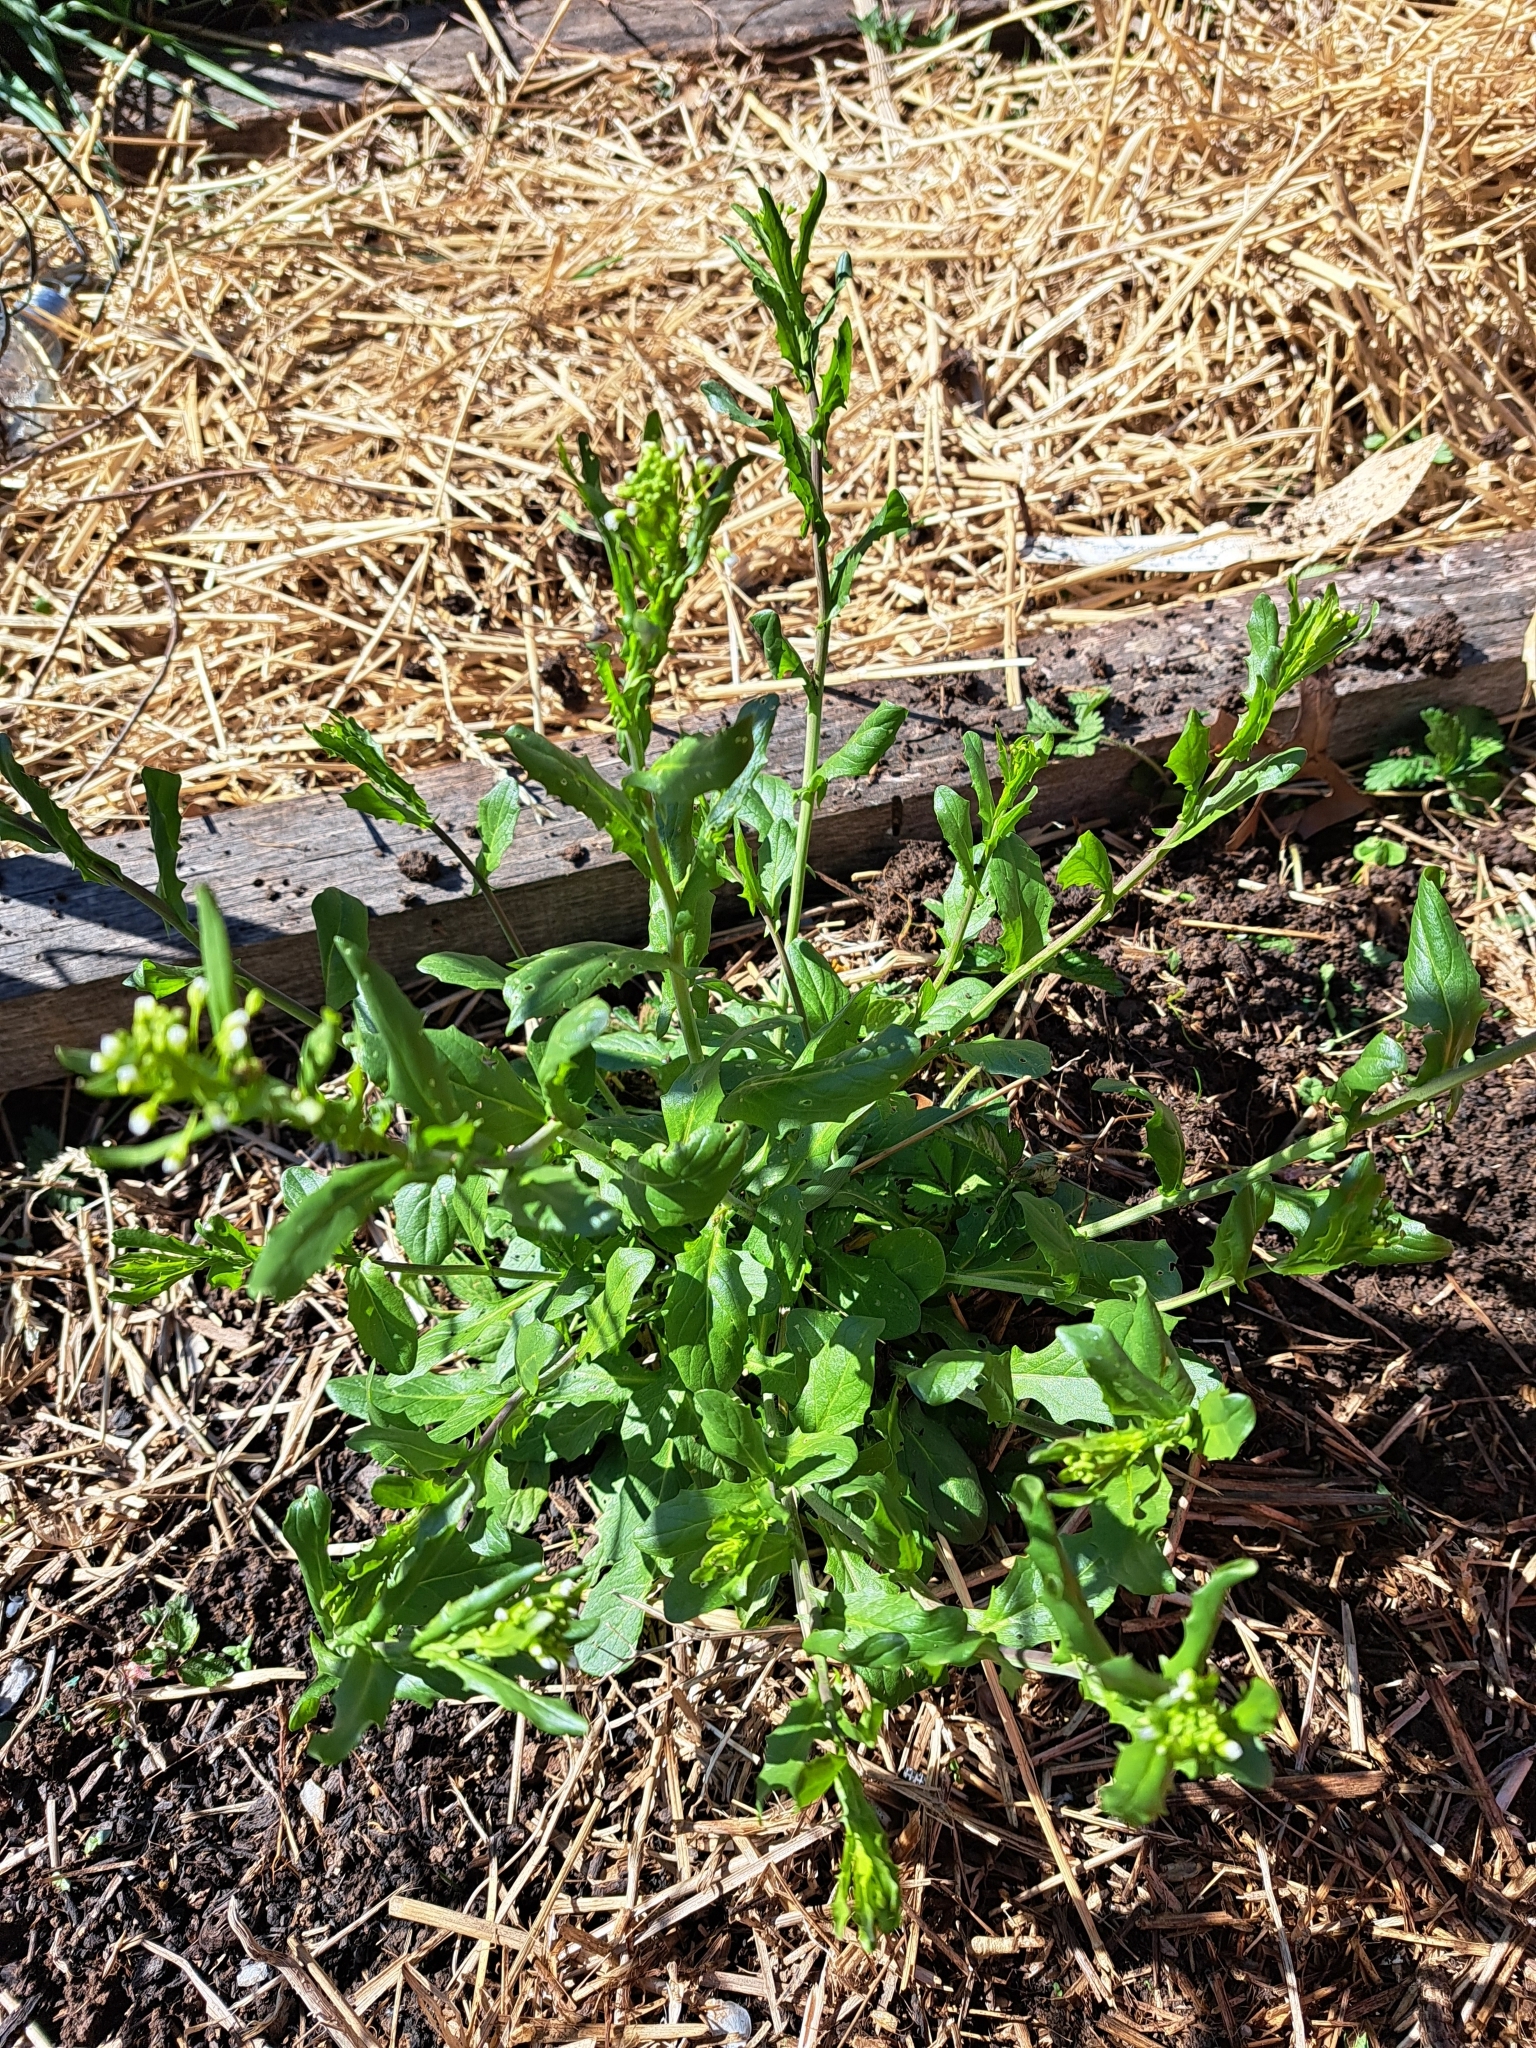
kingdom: Plantae
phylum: Tracheophyta
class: Magnoliopsida
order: Brassicales
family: Brassicaceae
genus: Mummenhoffia
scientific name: Mummenhoffia alliacea
